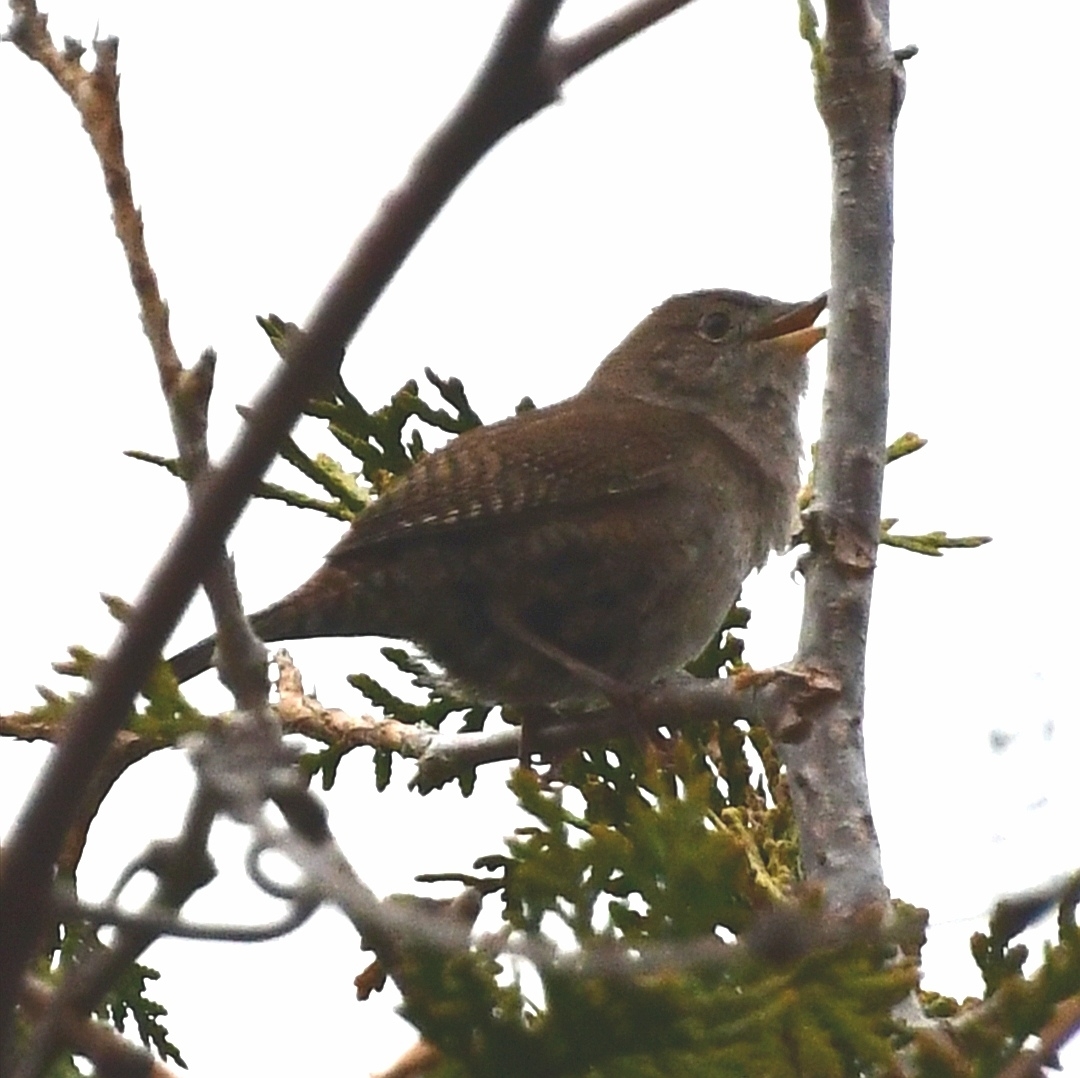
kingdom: Animalia
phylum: Chordata
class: Aves
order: Passeriformes
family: Troglodytidae
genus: Troglodytes
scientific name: Troglodytes aedon
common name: House wren
